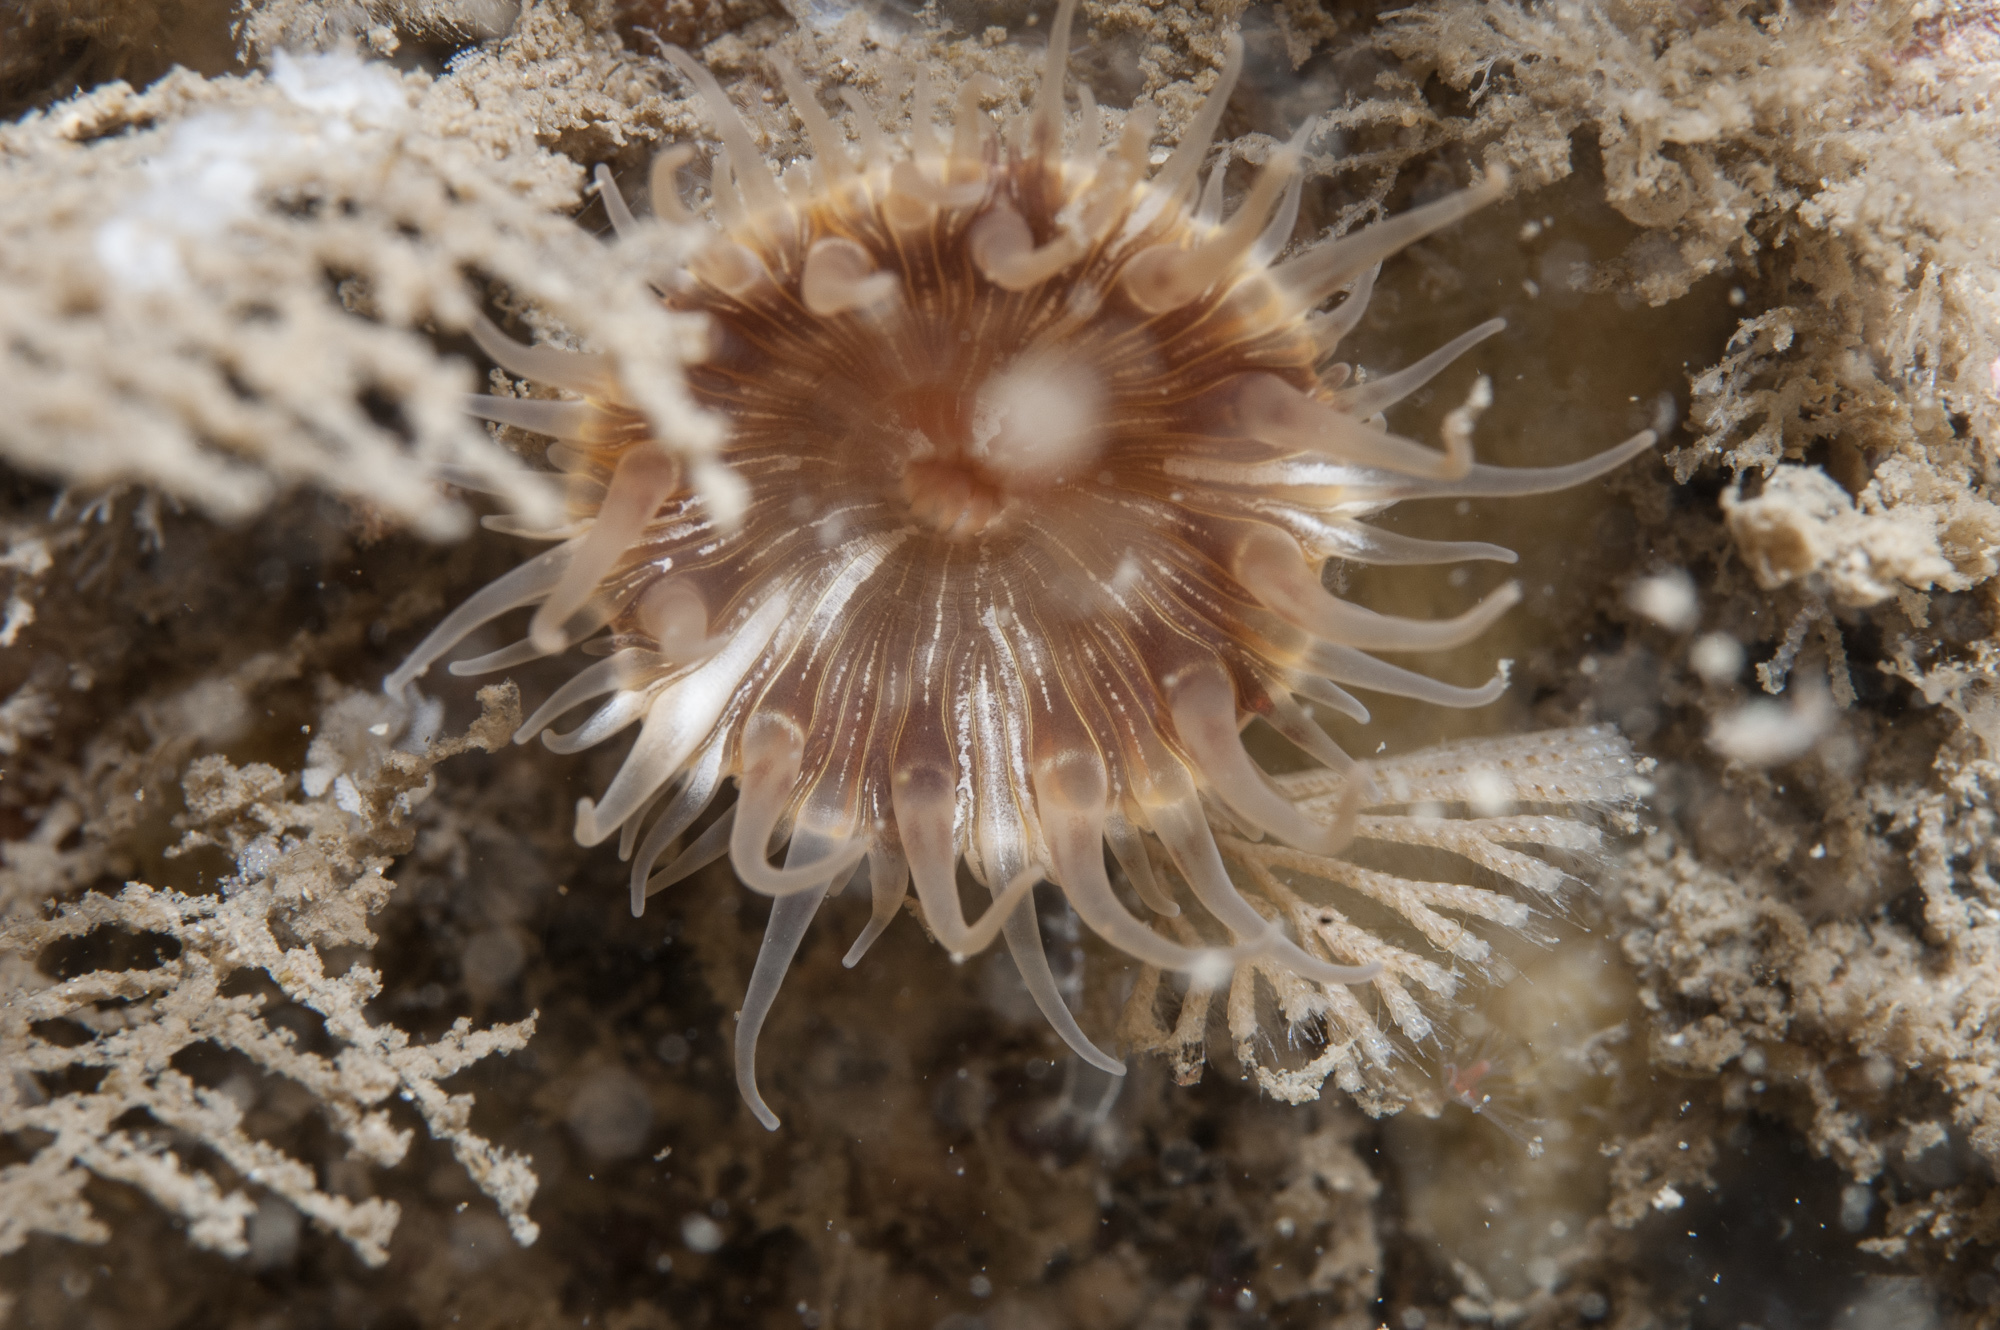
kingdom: Animalia
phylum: Cnidaria
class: Anthozoa
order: Actiniaria
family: Hormathiidae
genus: Hormathia
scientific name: Hormathia coronata
